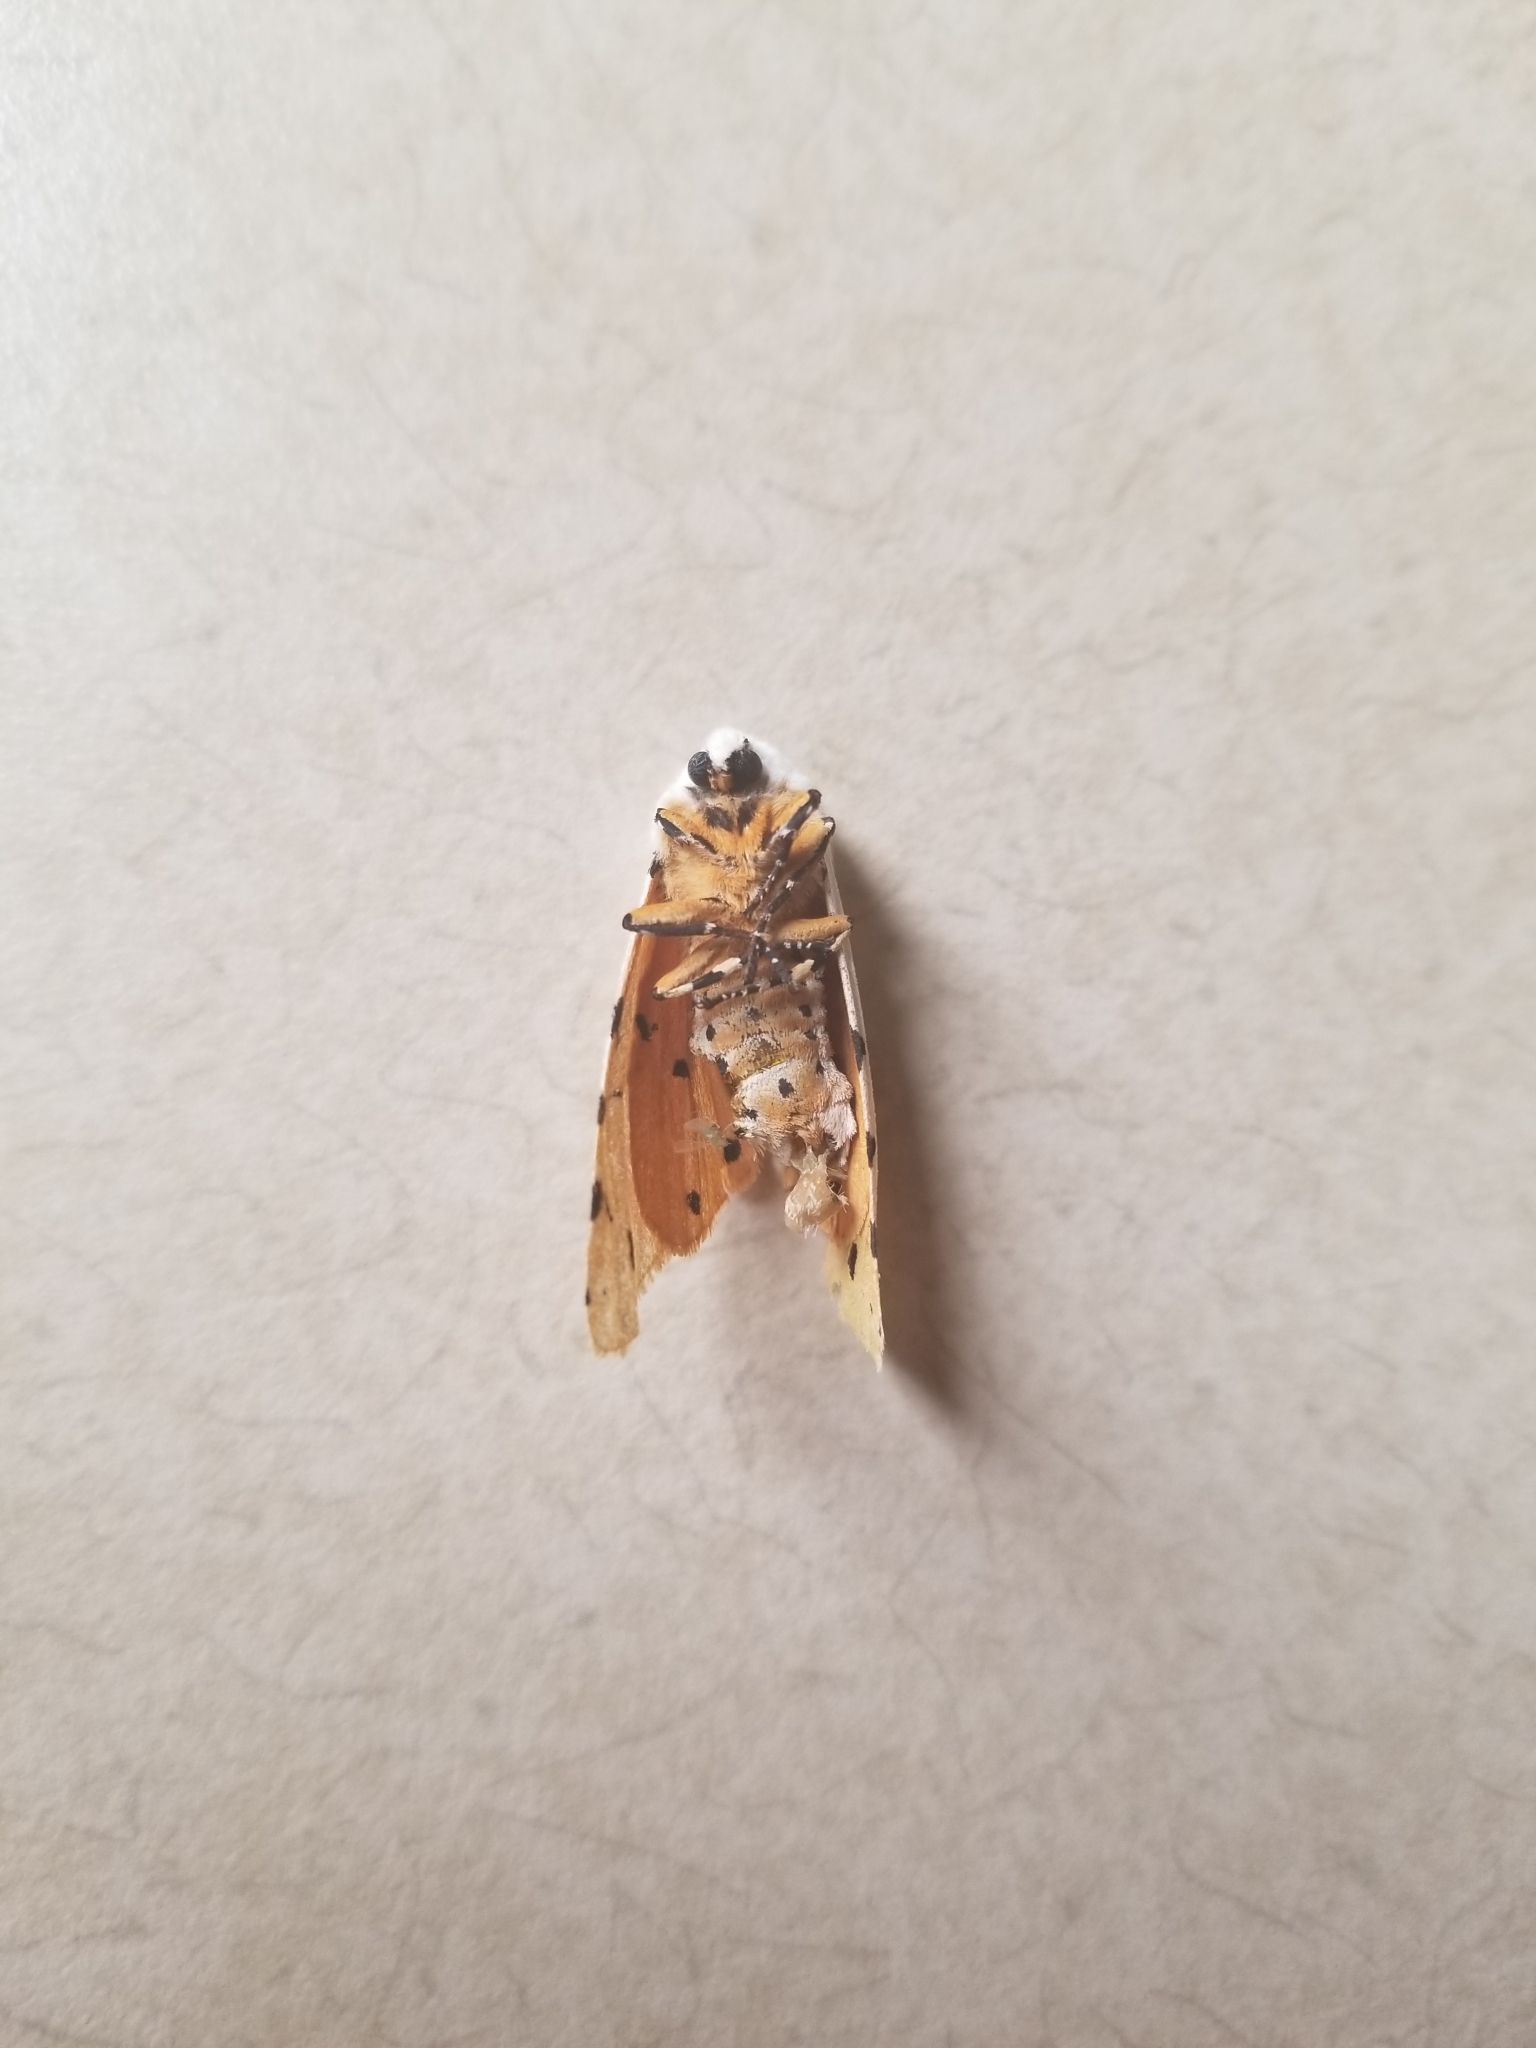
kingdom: Animalia
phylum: Arthropoda
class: Insecta
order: Lepidoptera
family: Erebidae
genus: Estigmene
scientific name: Estigmene acrea
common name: Salt marsh moth
